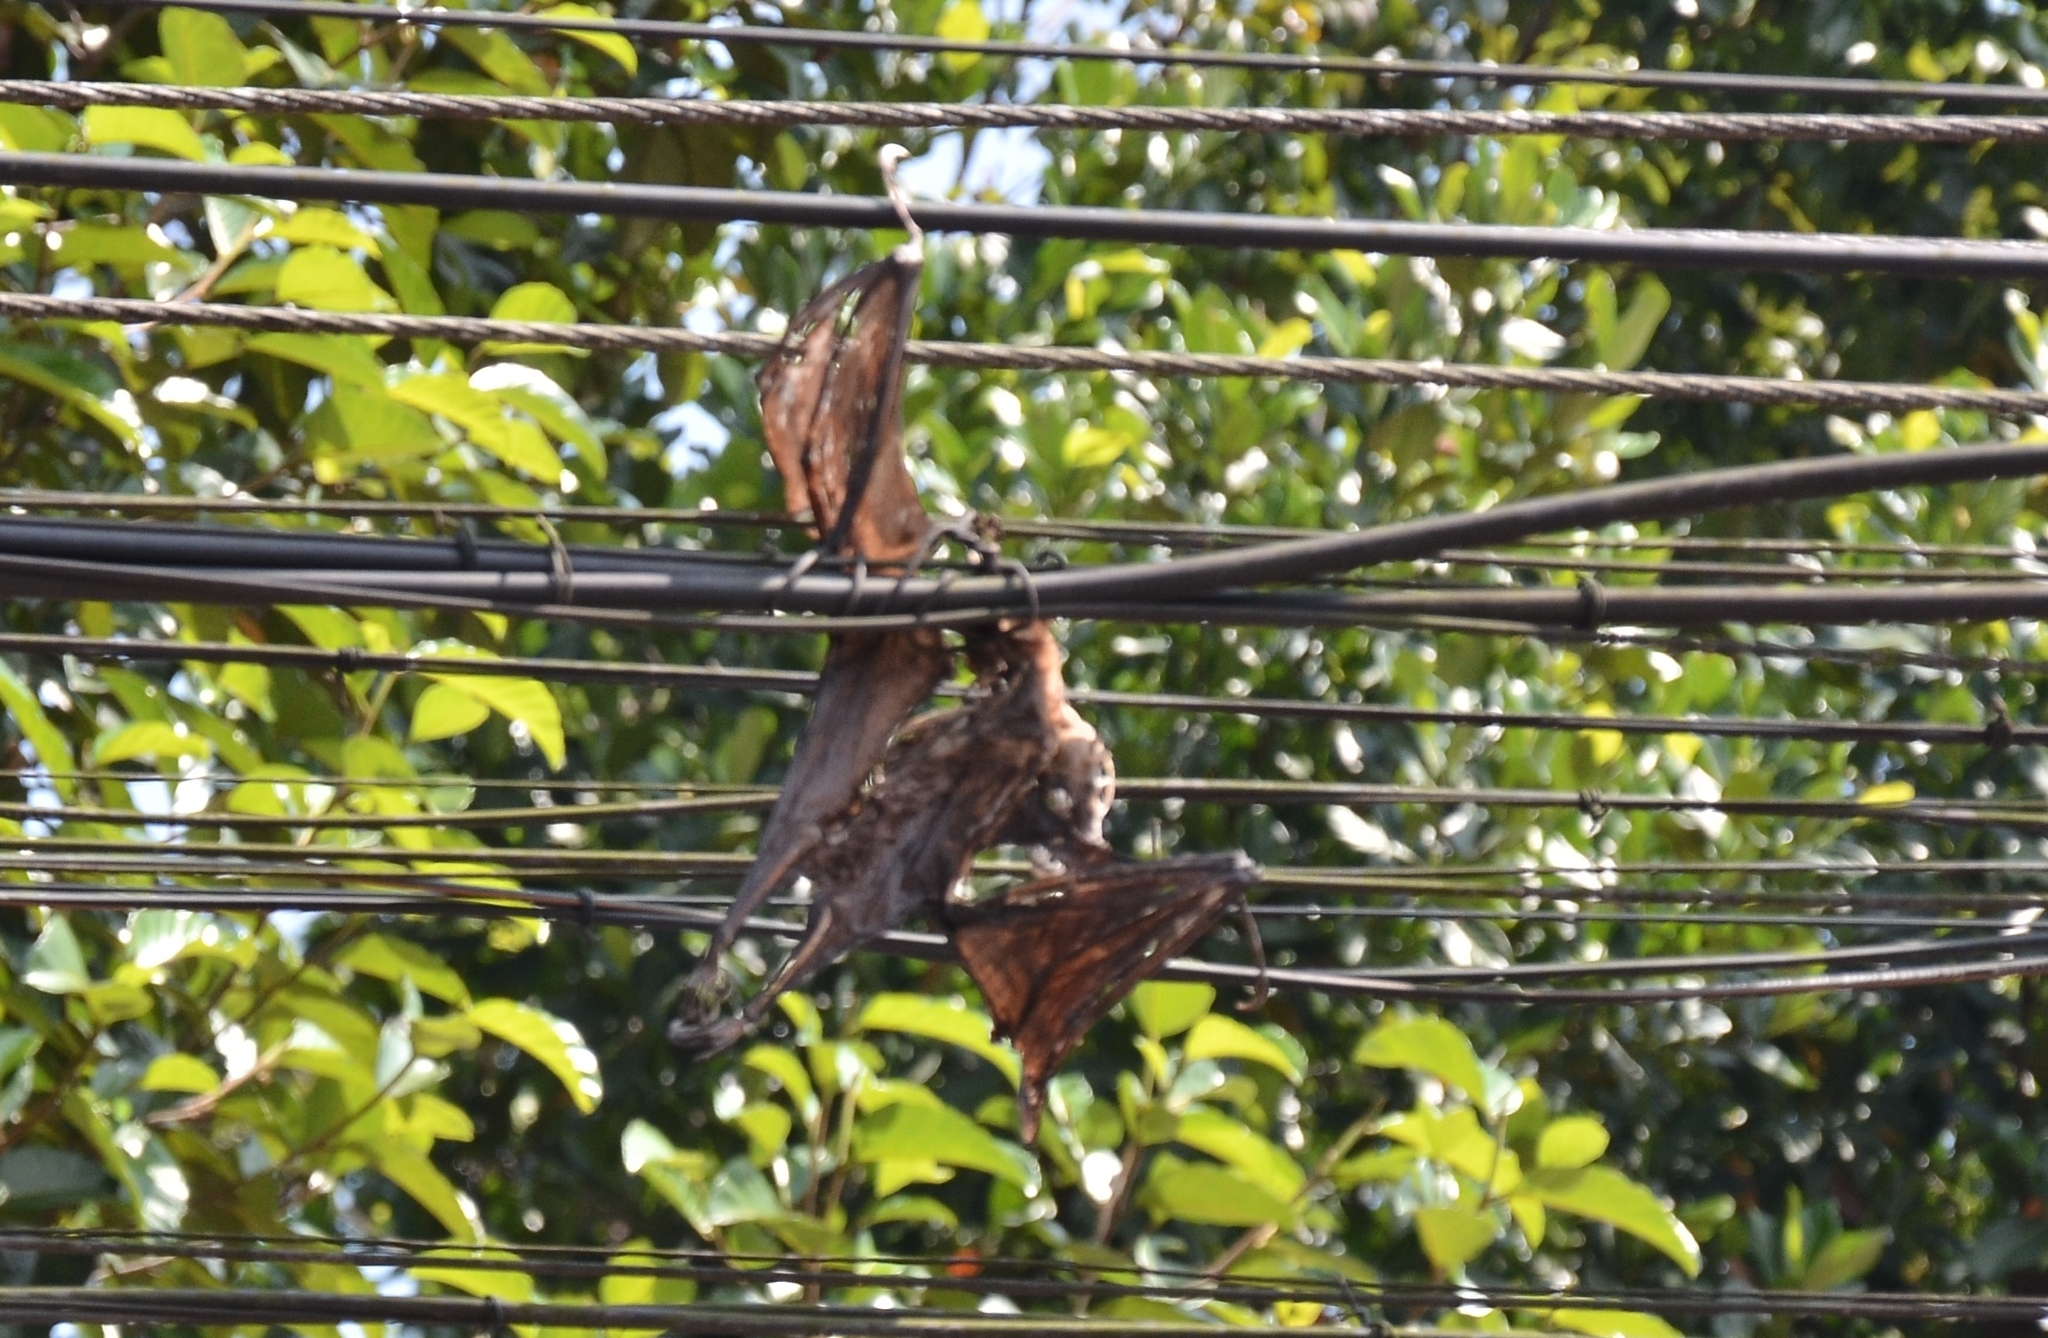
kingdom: Animalia
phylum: Chordata
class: Mammalia
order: Chiroptera
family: Pteropodidae
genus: Pteropus
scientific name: Pteropus vampyrus
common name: Large flying fox
